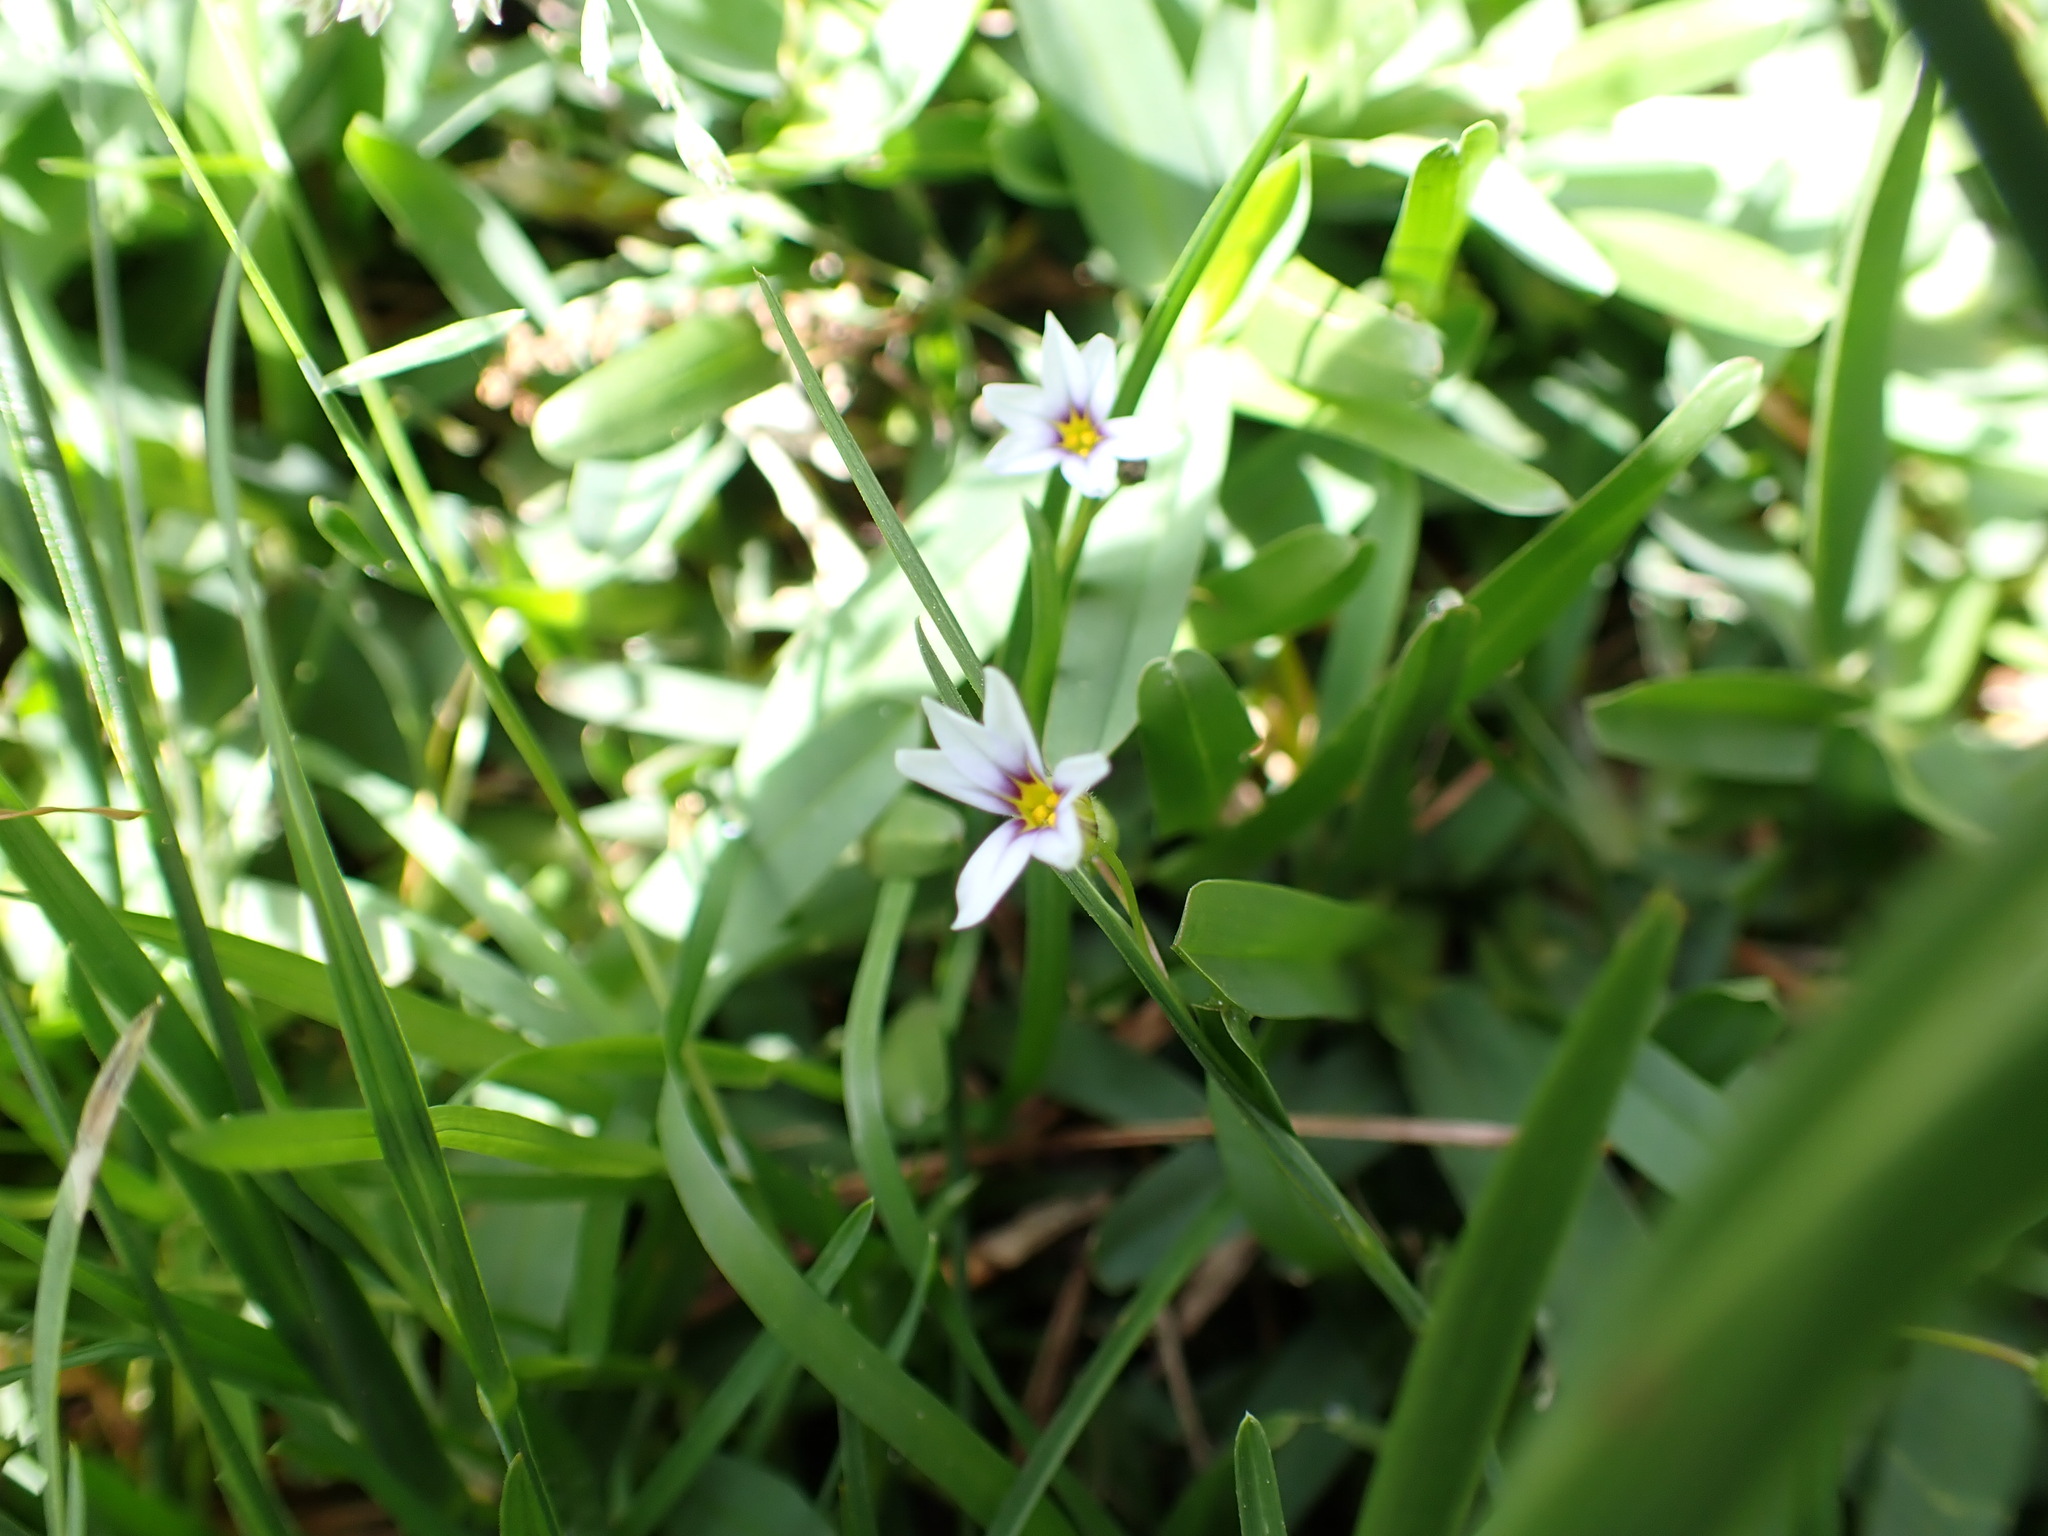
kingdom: Plantae
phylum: Tracheophyta
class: Liliopsida
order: Asparagales
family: Iridaceae
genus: Sisyrinchium
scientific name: Sisyrinchium micranthum
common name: Bermuda pigroot
